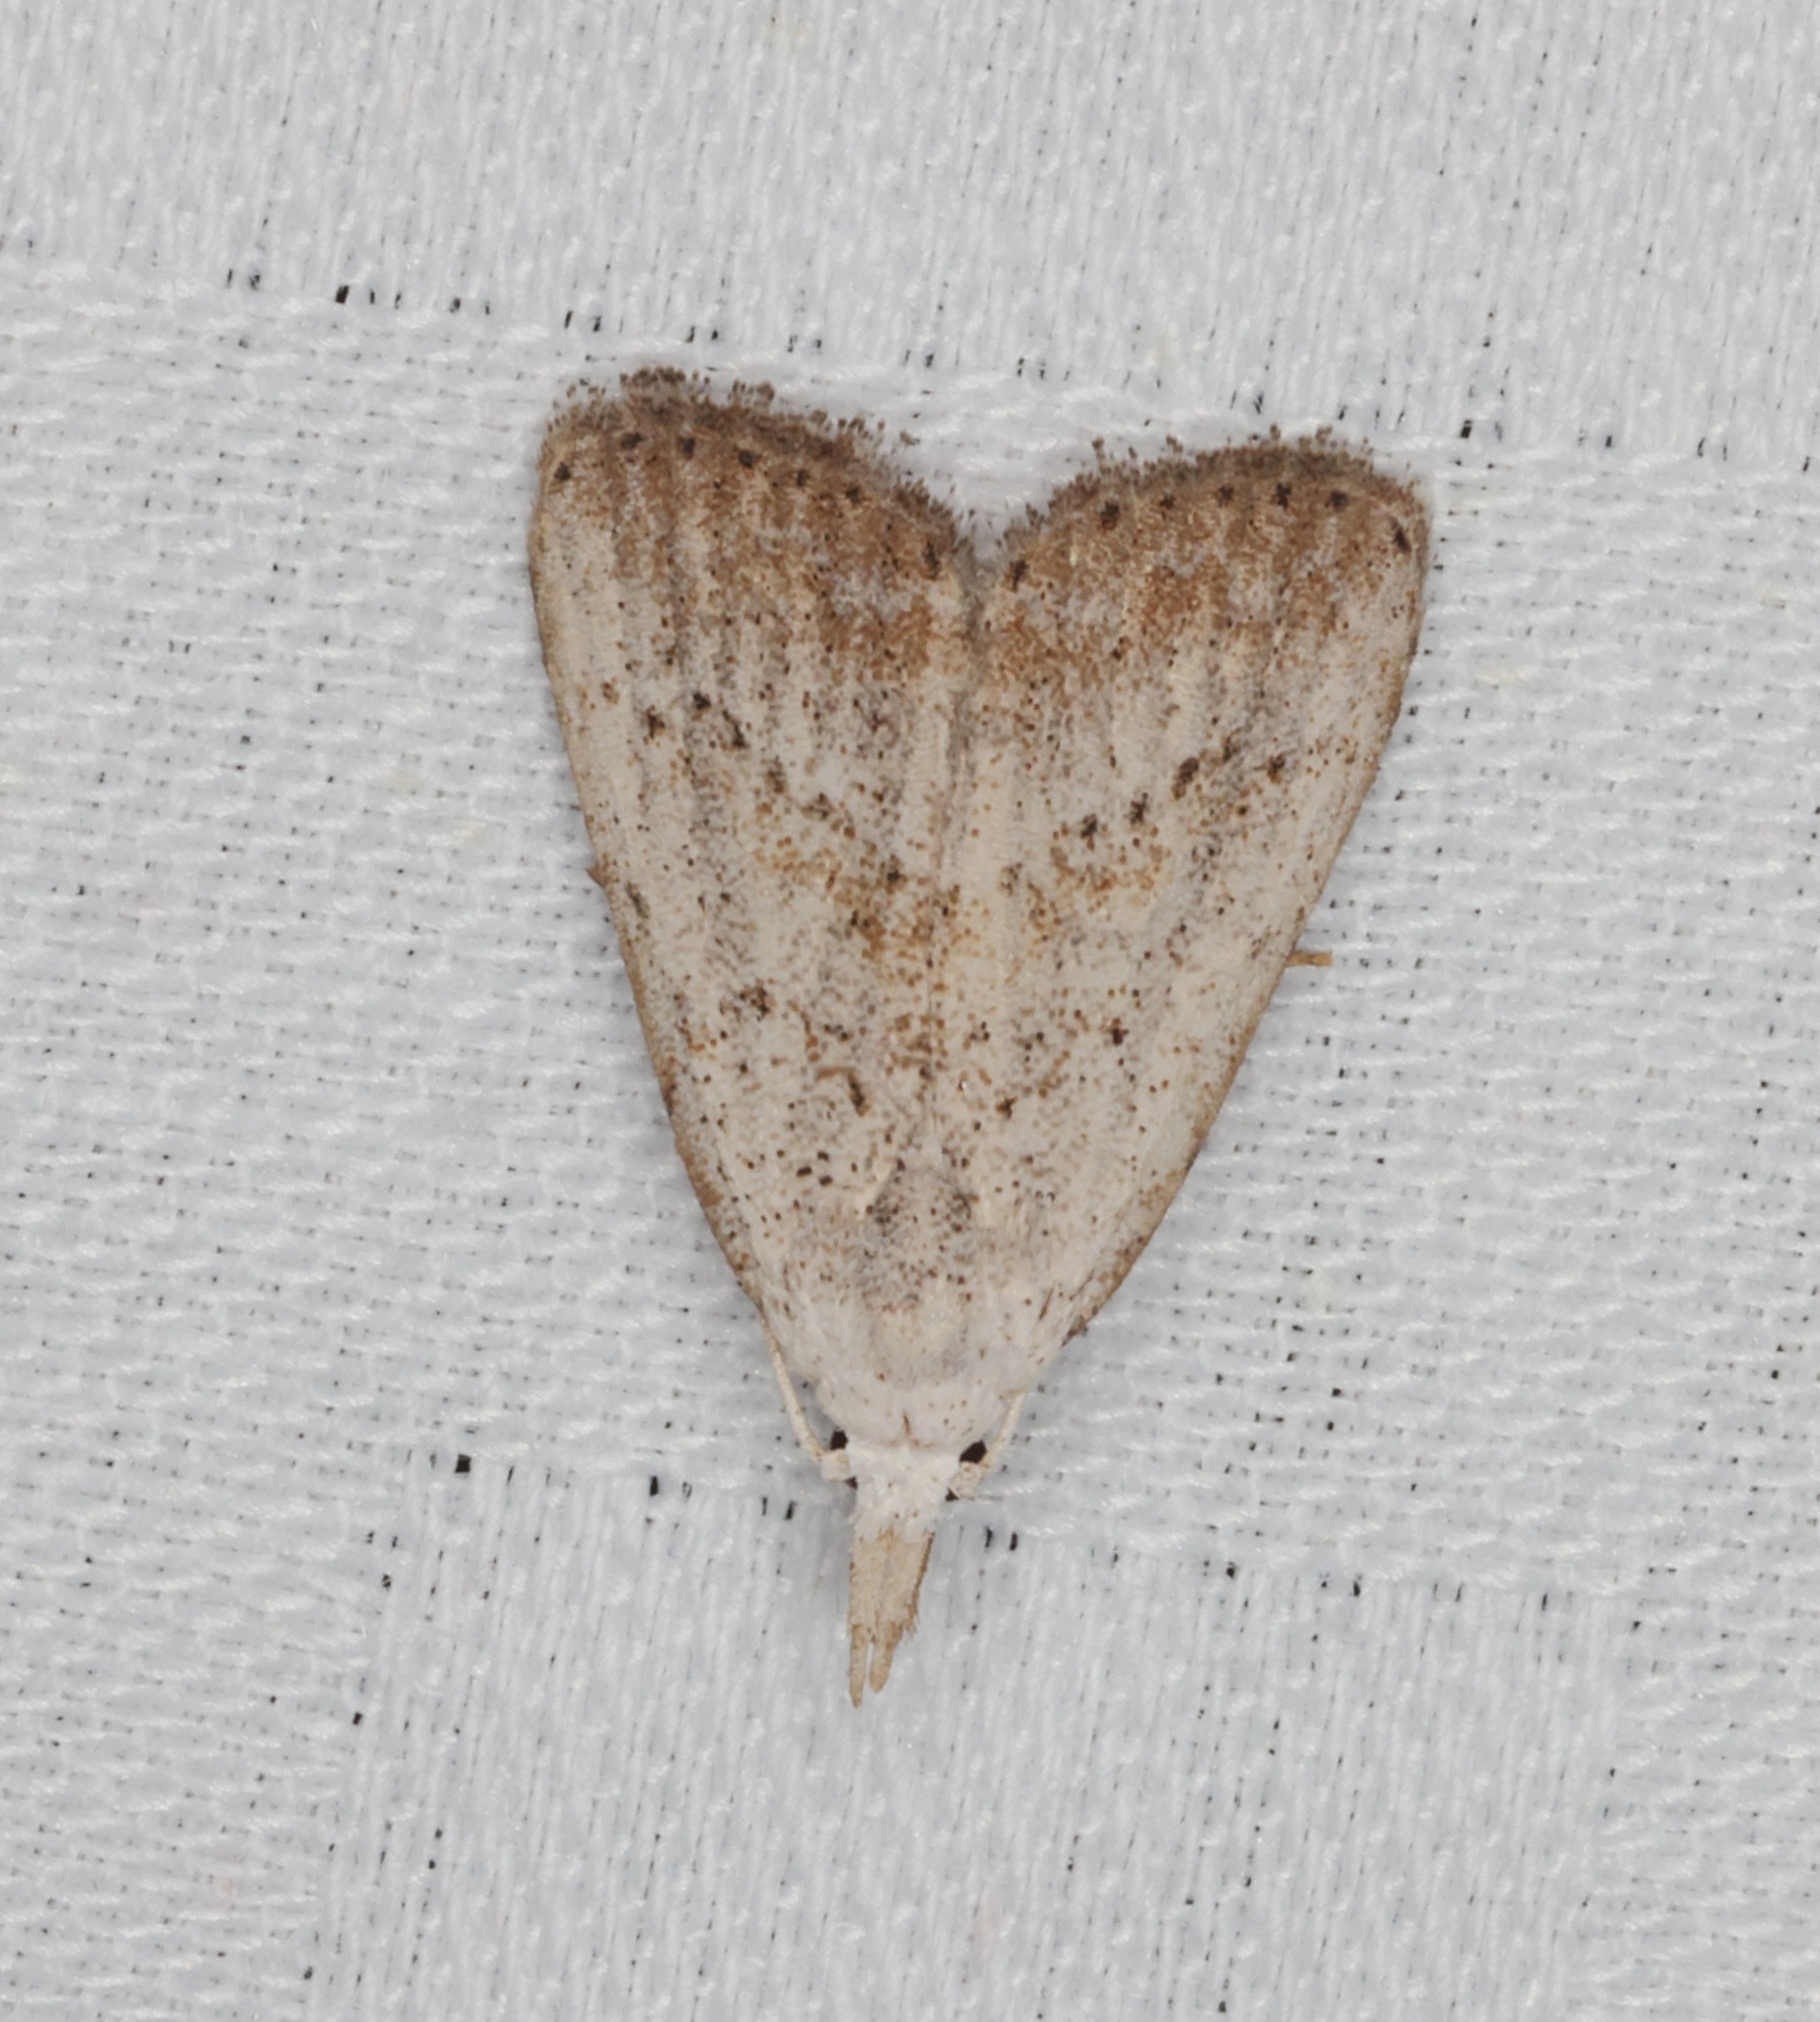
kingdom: Animalia
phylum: Arthropoda
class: Insecta
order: Lepidoptera
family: Nolidae
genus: Meganola
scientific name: Meganola brunellus
